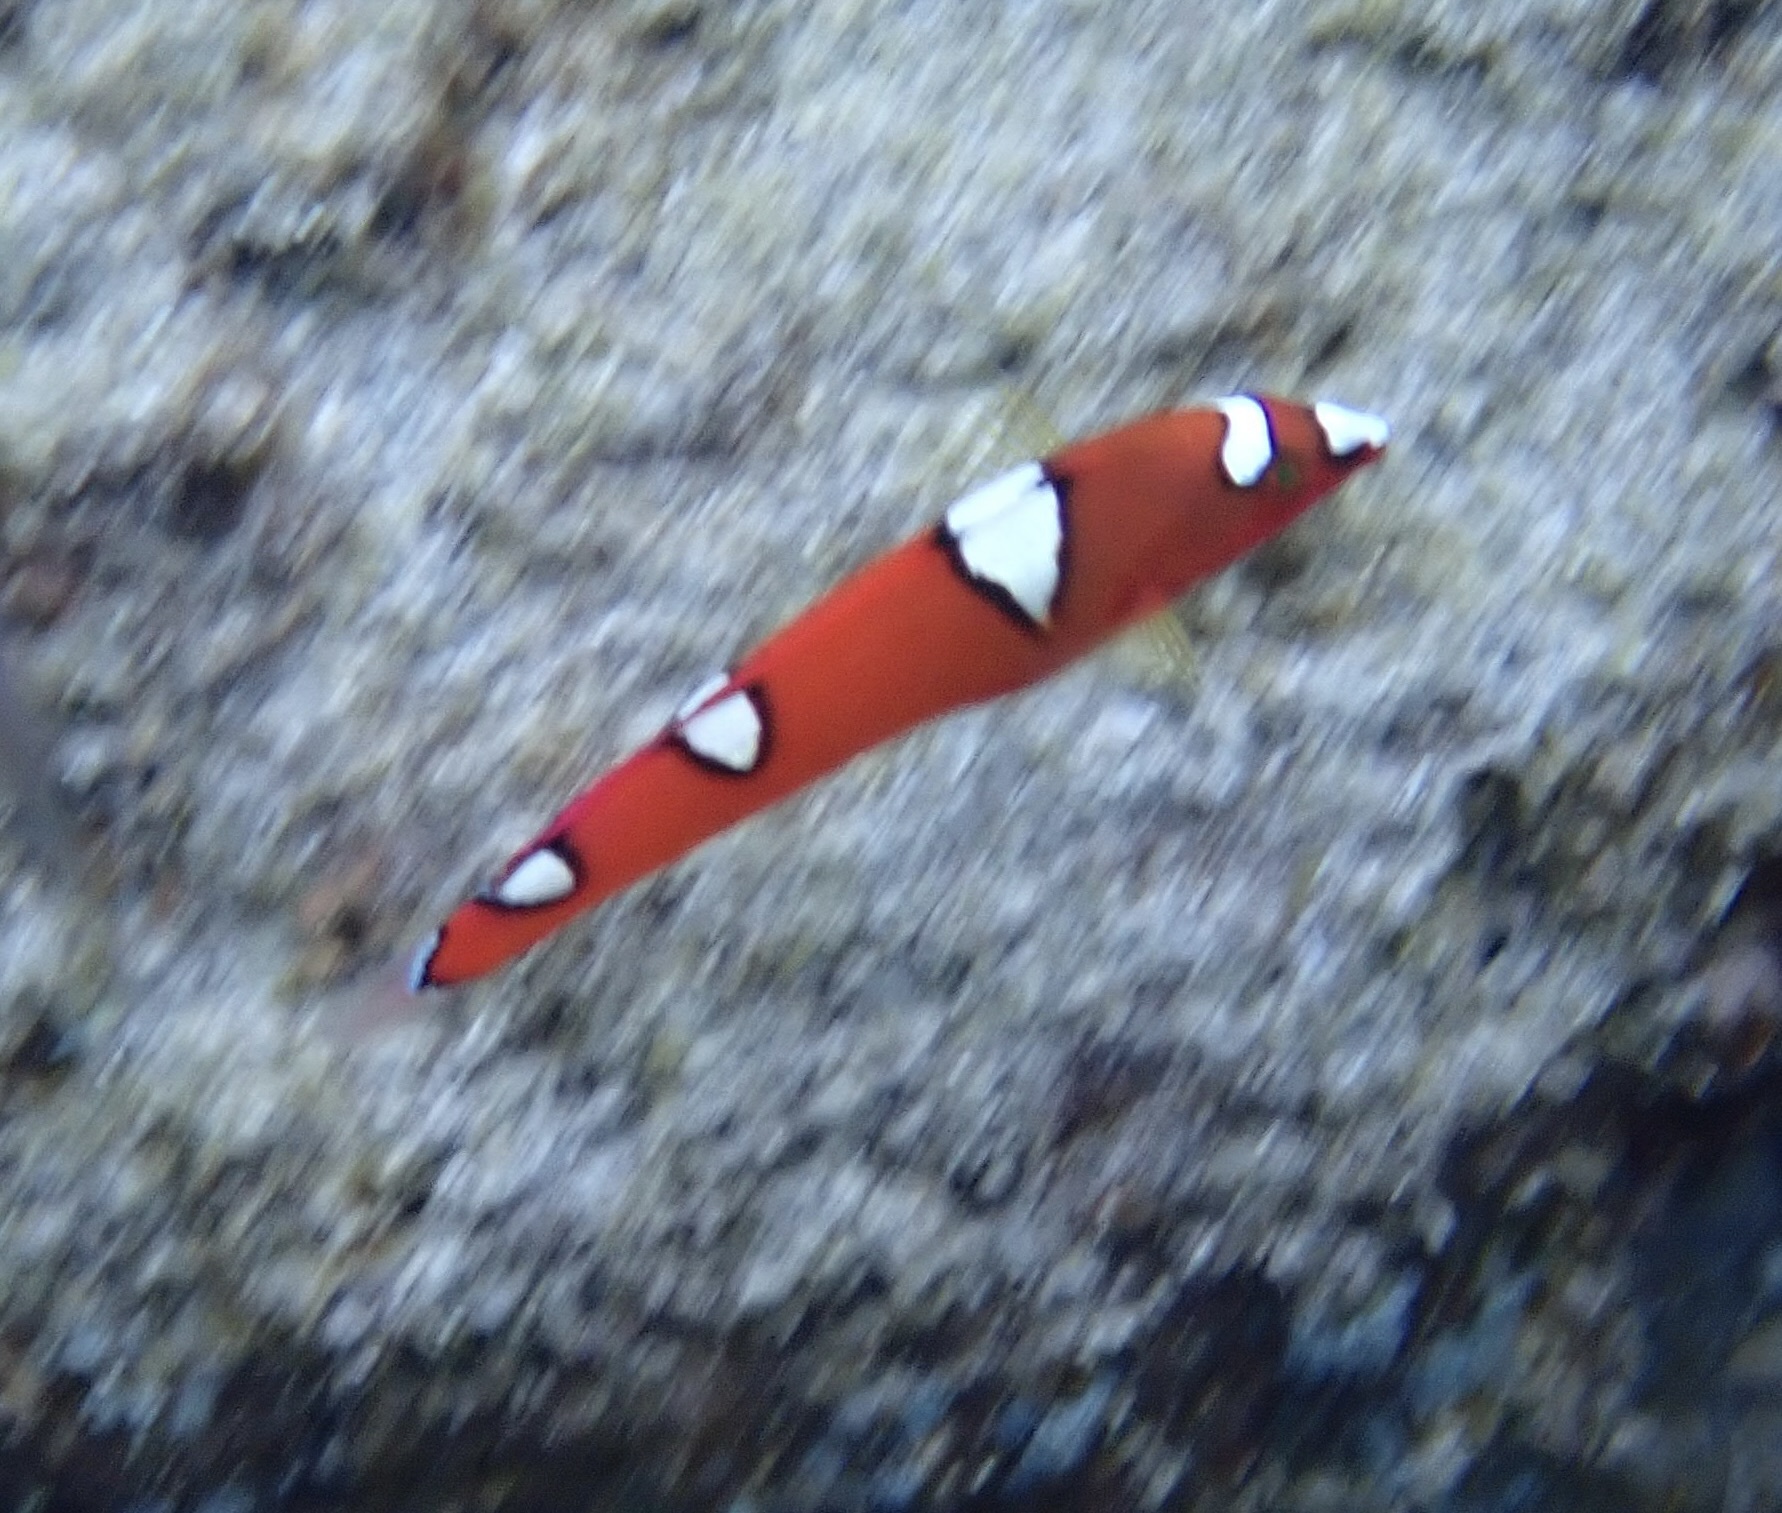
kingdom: Animalia
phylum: Chordata
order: Perciformes
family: Labridae
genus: Coris
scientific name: Coris gaimard
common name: Yellowtail coris
